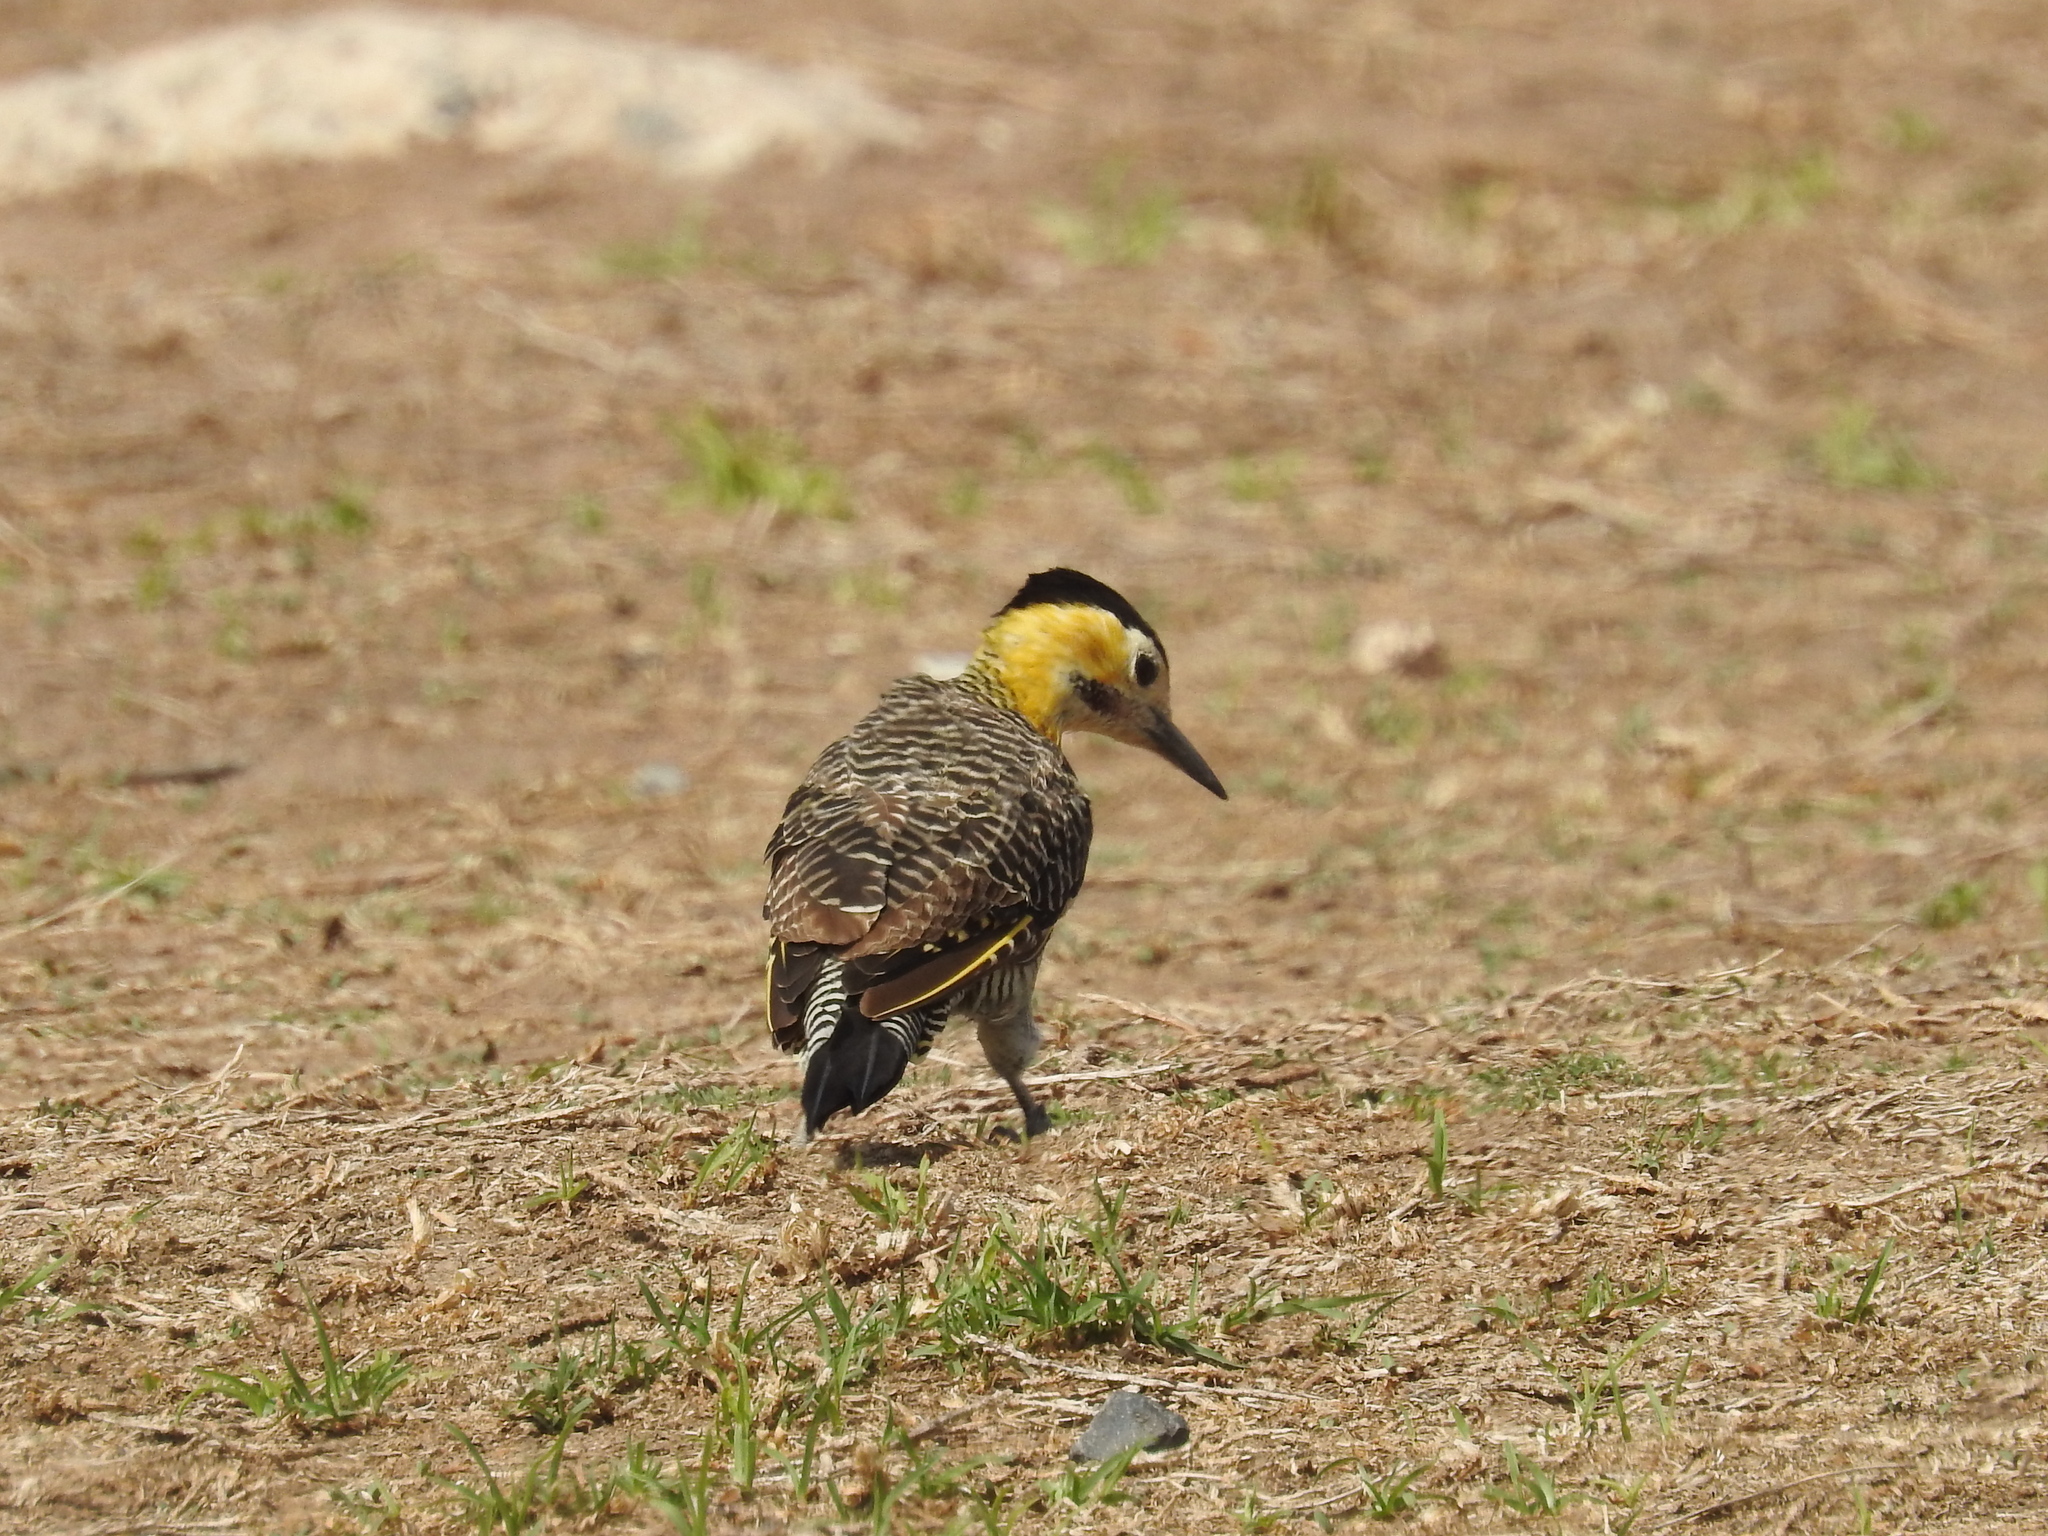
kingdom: Animalia
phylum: Chordata
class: Aves
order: Piciformes
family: Picidae
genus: Colaptes
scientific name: Colaptes campestris
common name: Campo flicker
